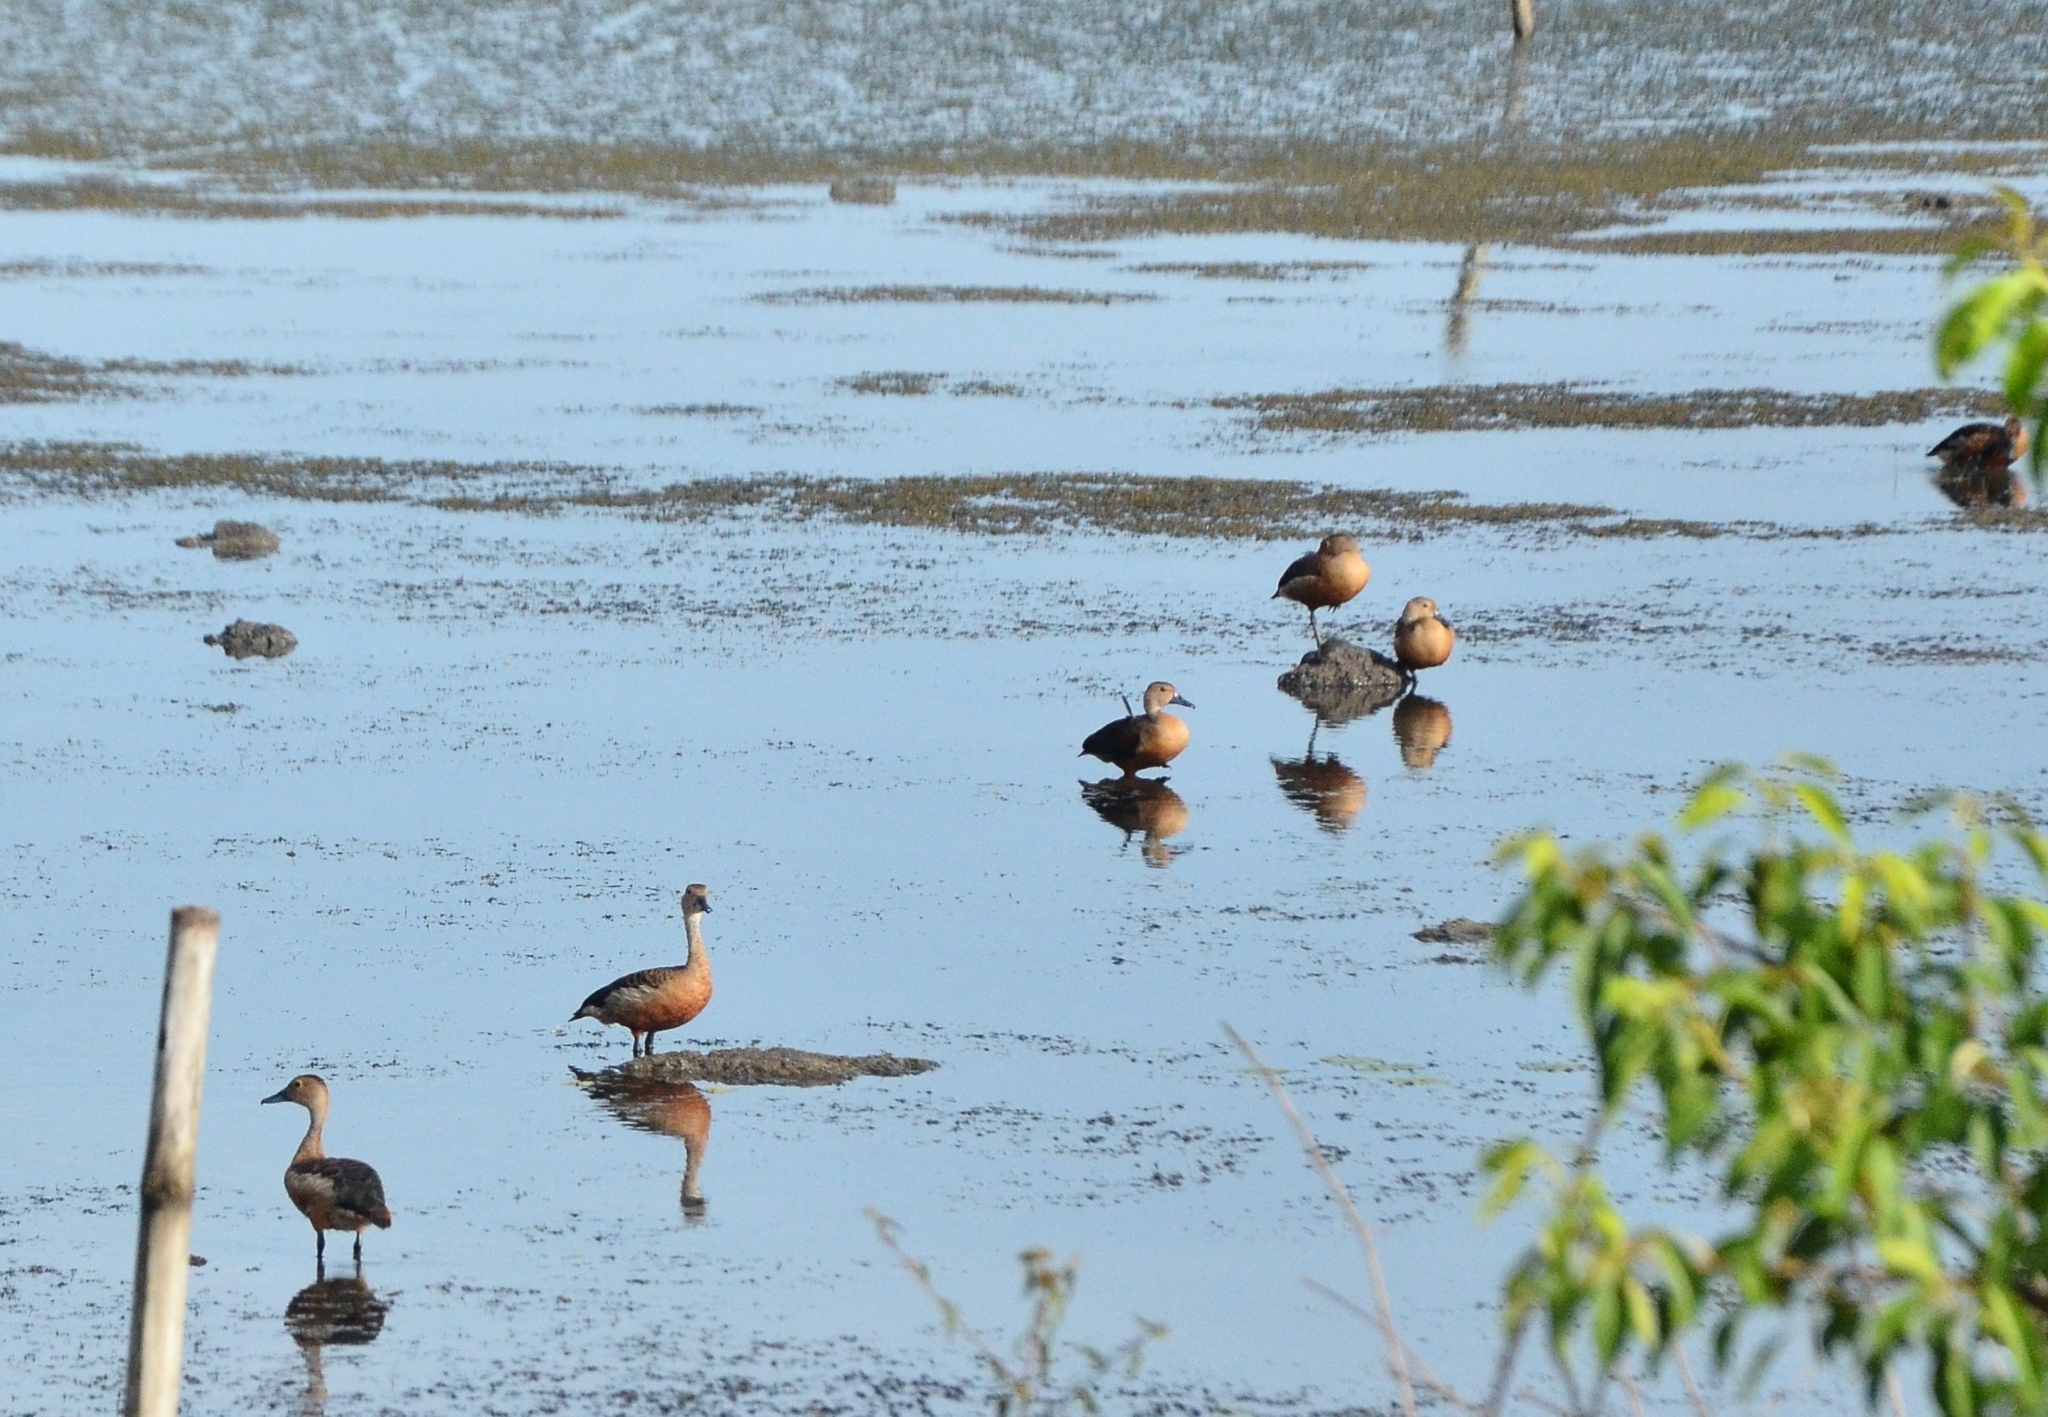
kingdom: Animalia
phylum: Chordata
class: Aves
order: Anseriformes
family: Anatidae
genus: Dendrocygna
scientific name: Dendrocygna javanica
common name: Lesser whistling-duck
